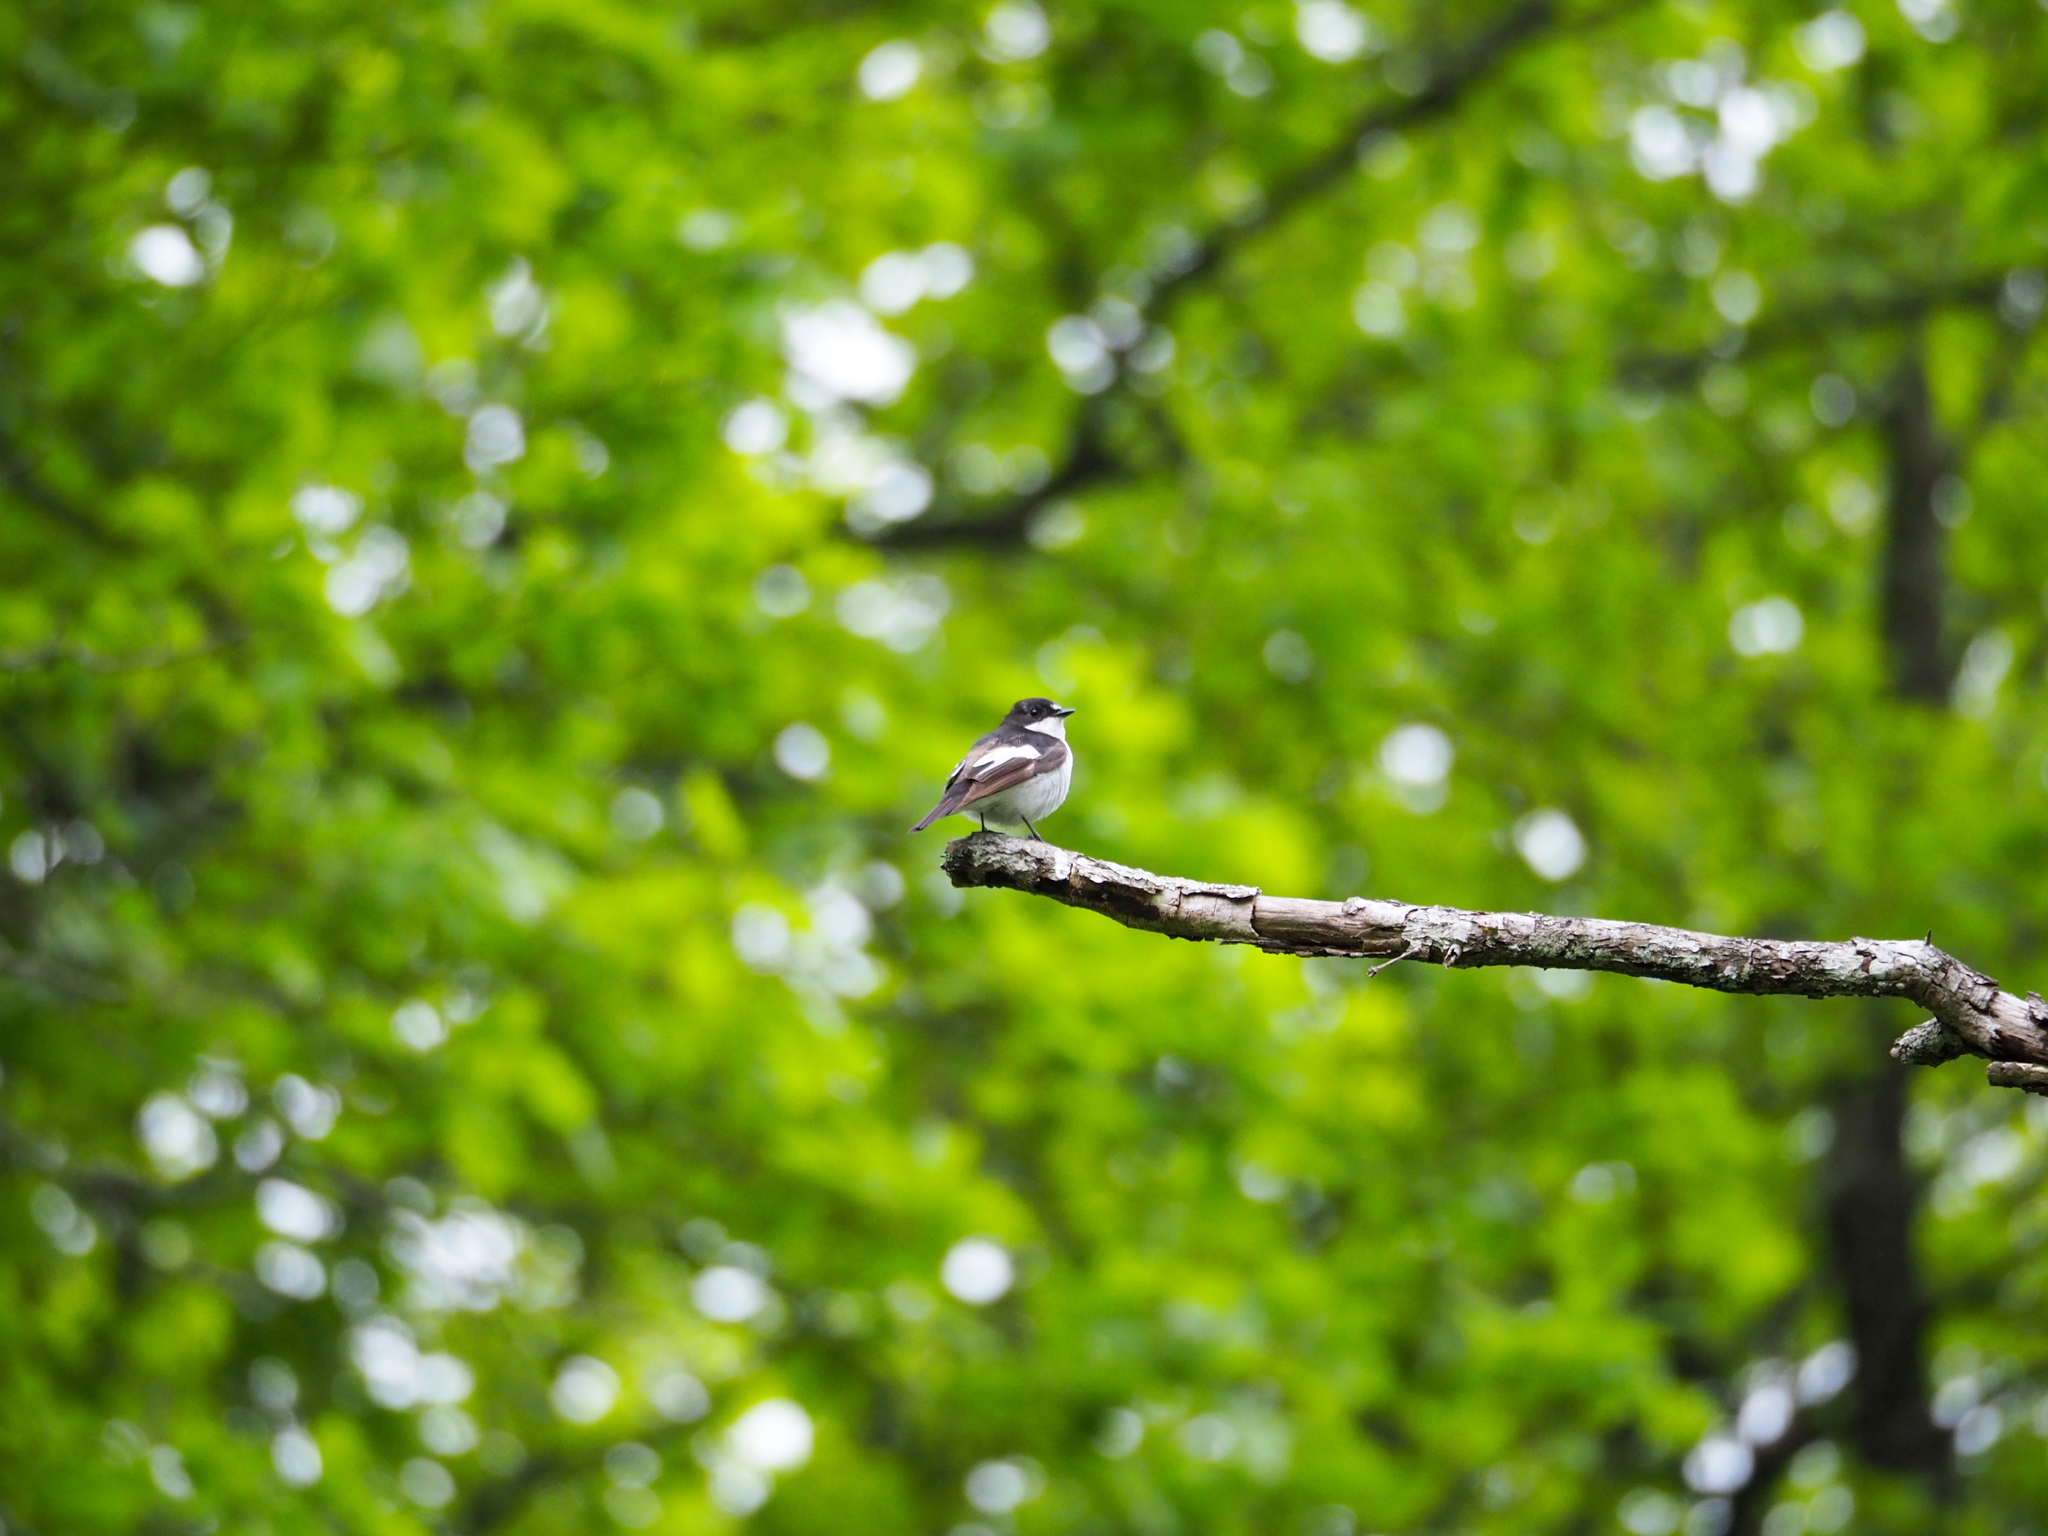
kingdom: Animalia
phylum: Chordata
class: Aves
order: Passeriformes
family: Muscicapidae
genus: Ficedula
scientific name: Ficedula hypoleuca
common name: European pied flycatcher
